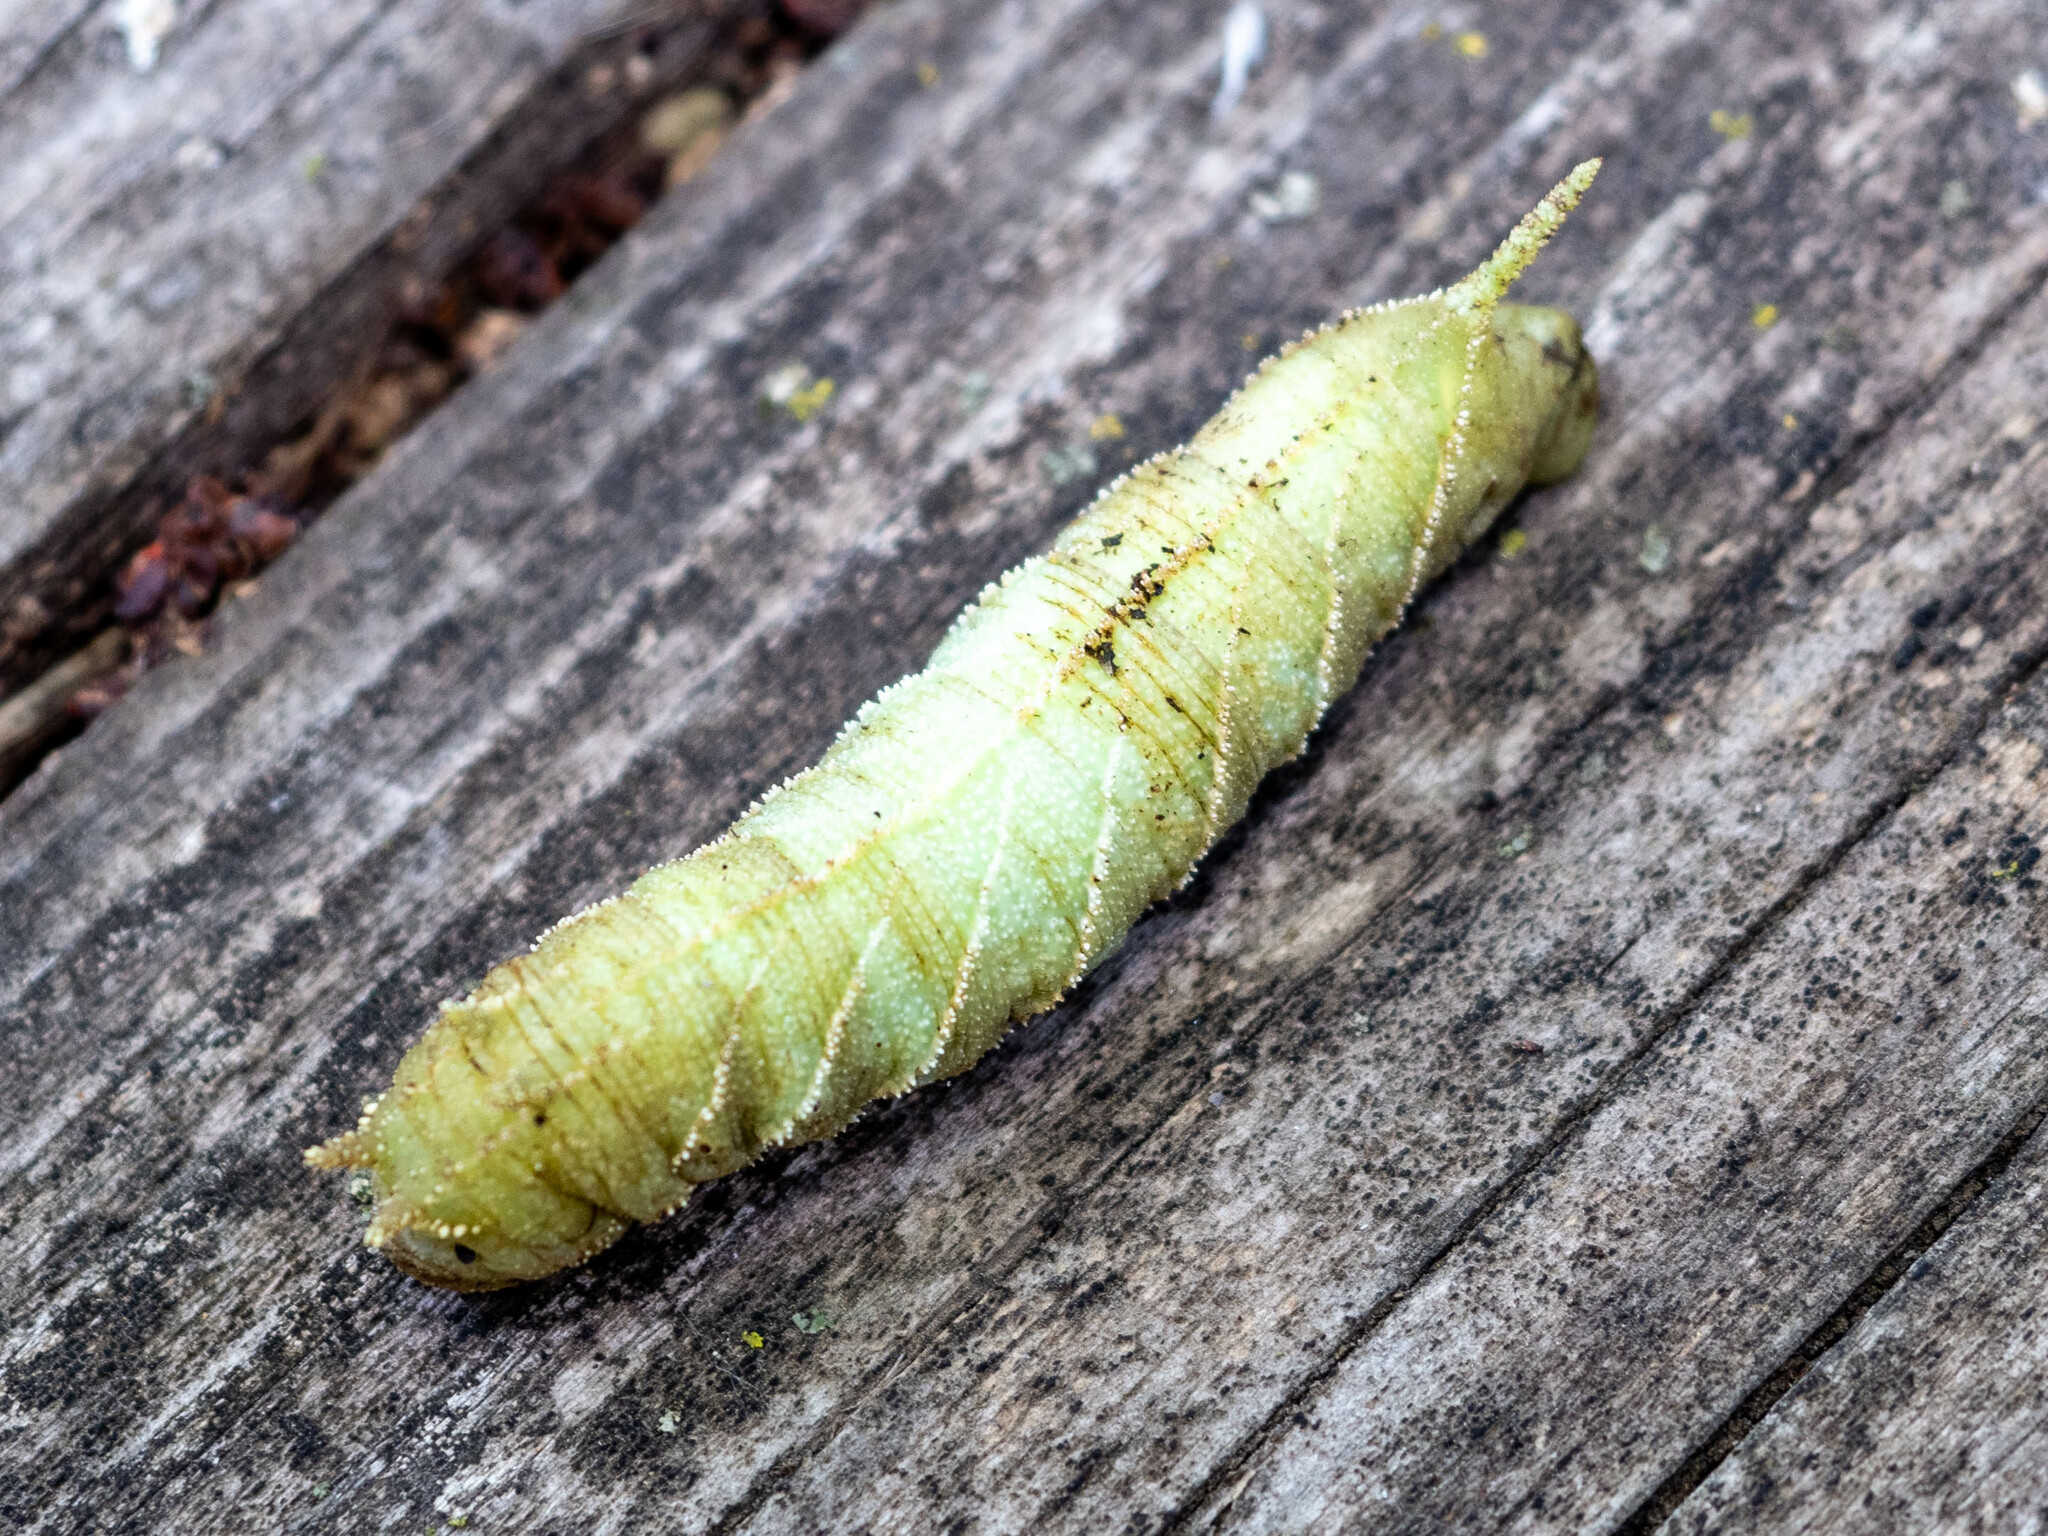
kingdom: Animalia
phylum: Arthropoda
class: Insecta
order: Lepidoptera
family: Sphingidae
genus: Ceratomia
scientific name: Ceratomia amyntor
